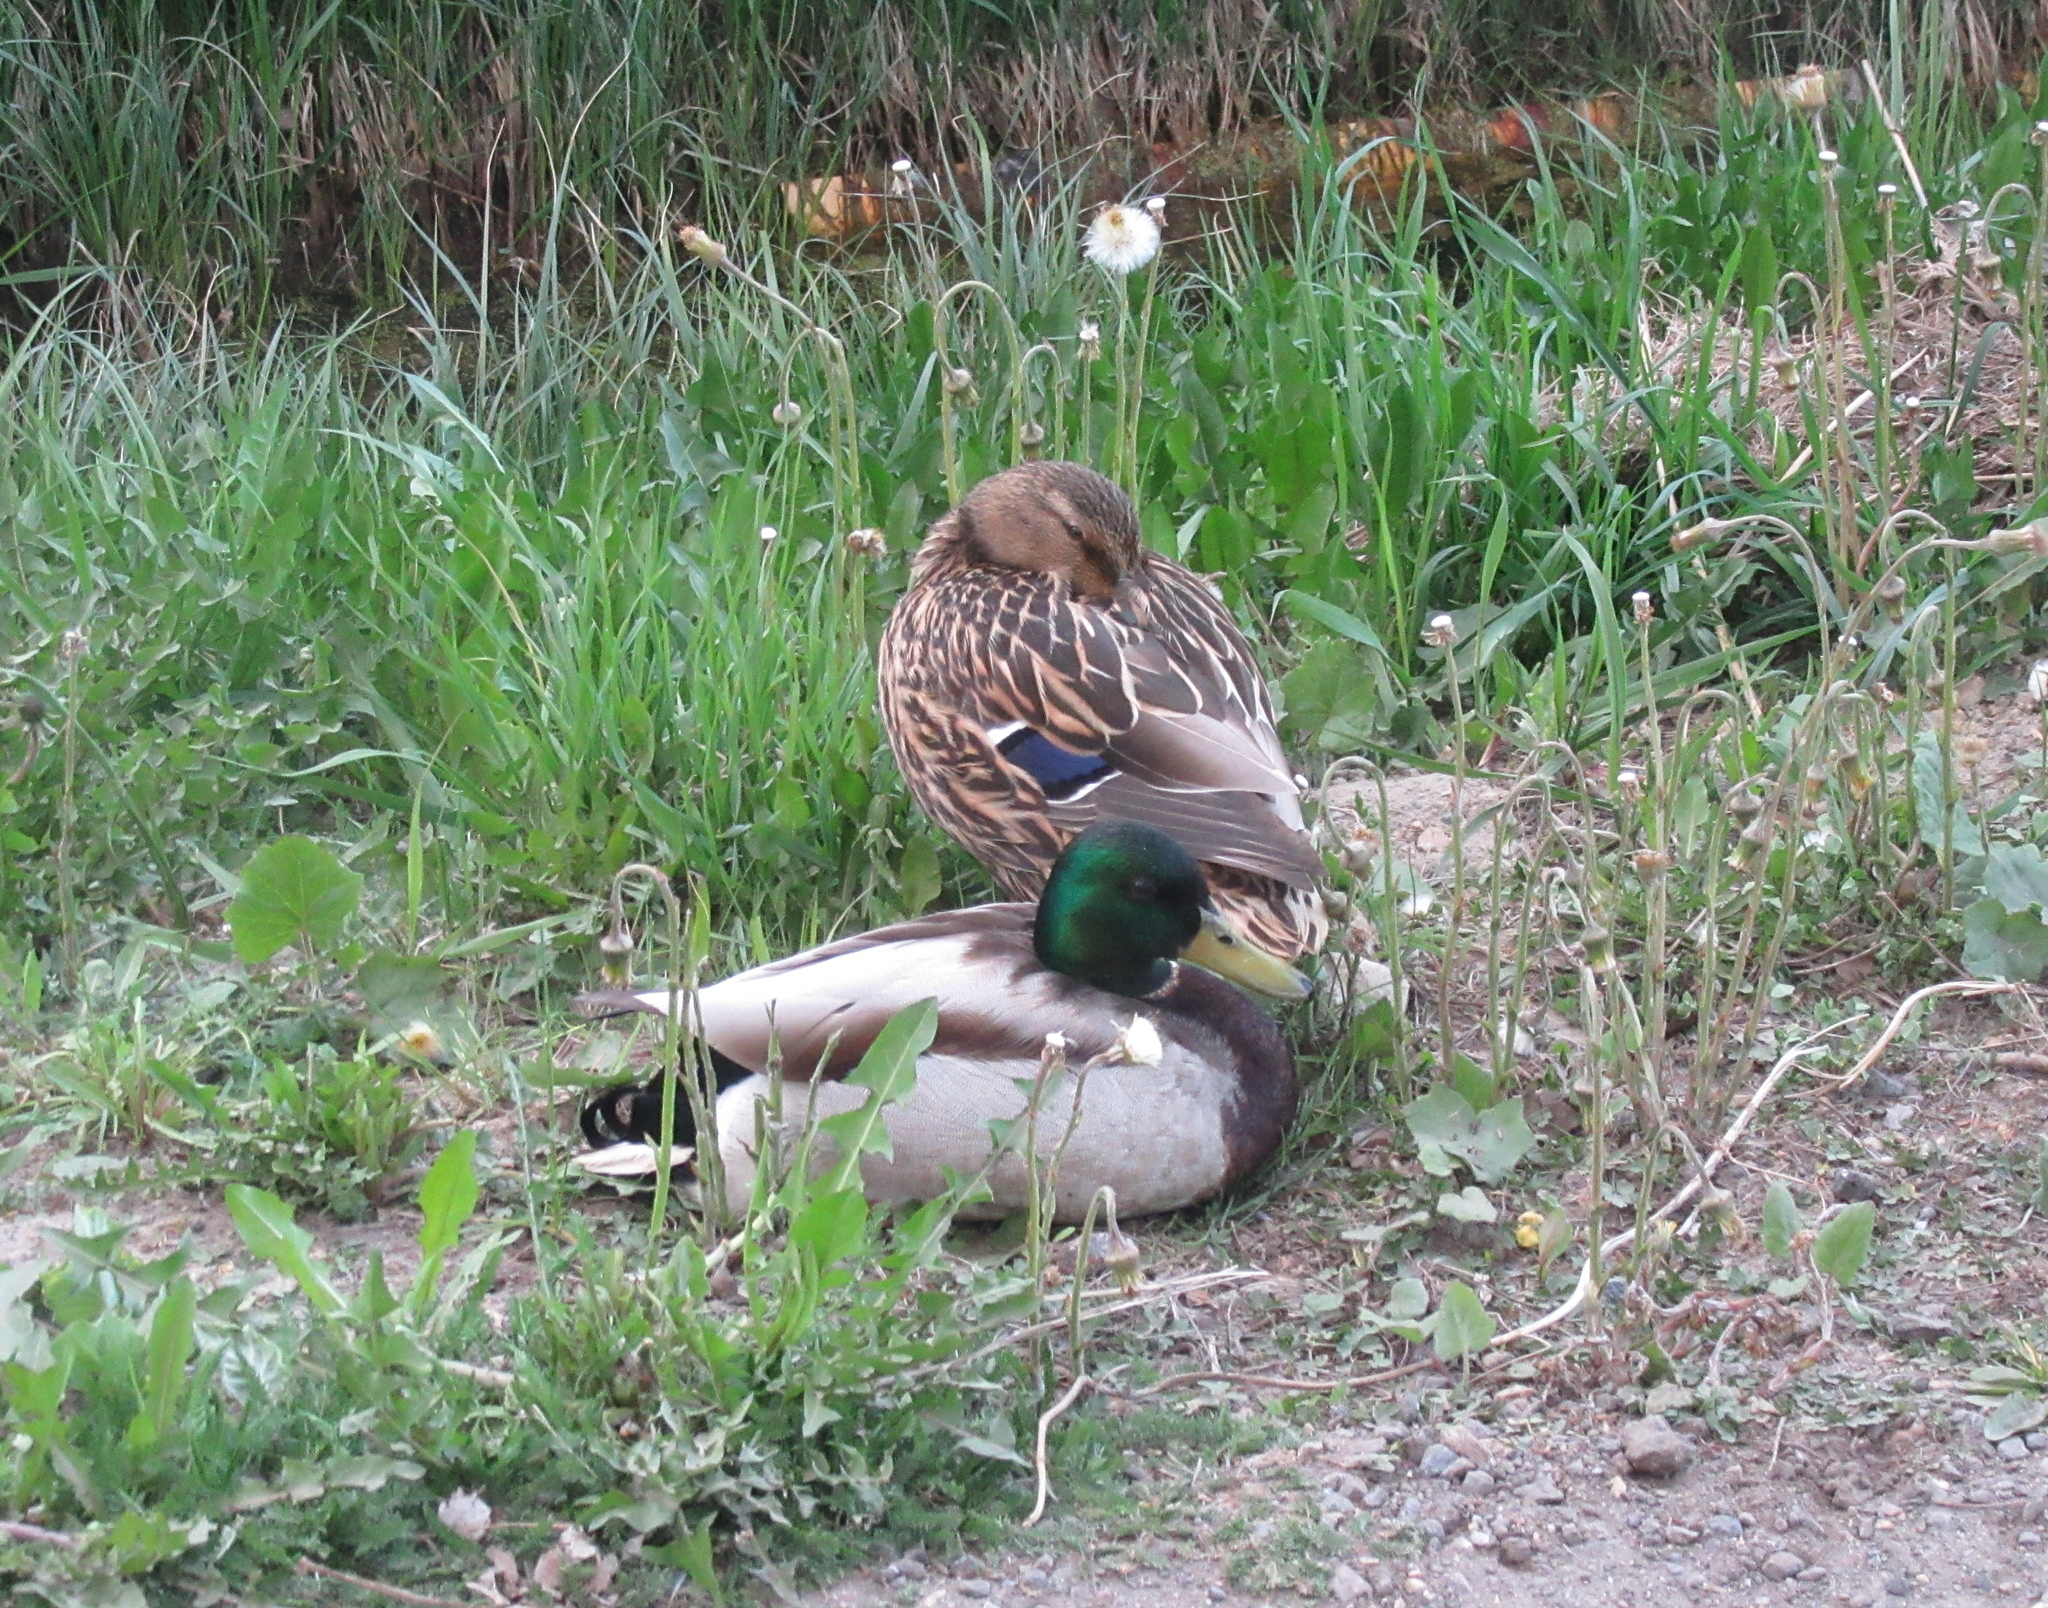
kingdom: Animalia
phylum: Chordata
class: Aves
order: Anseriformes
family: Anatidae
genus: Anas
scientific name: Anas platyrhynchos
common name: Mallard
